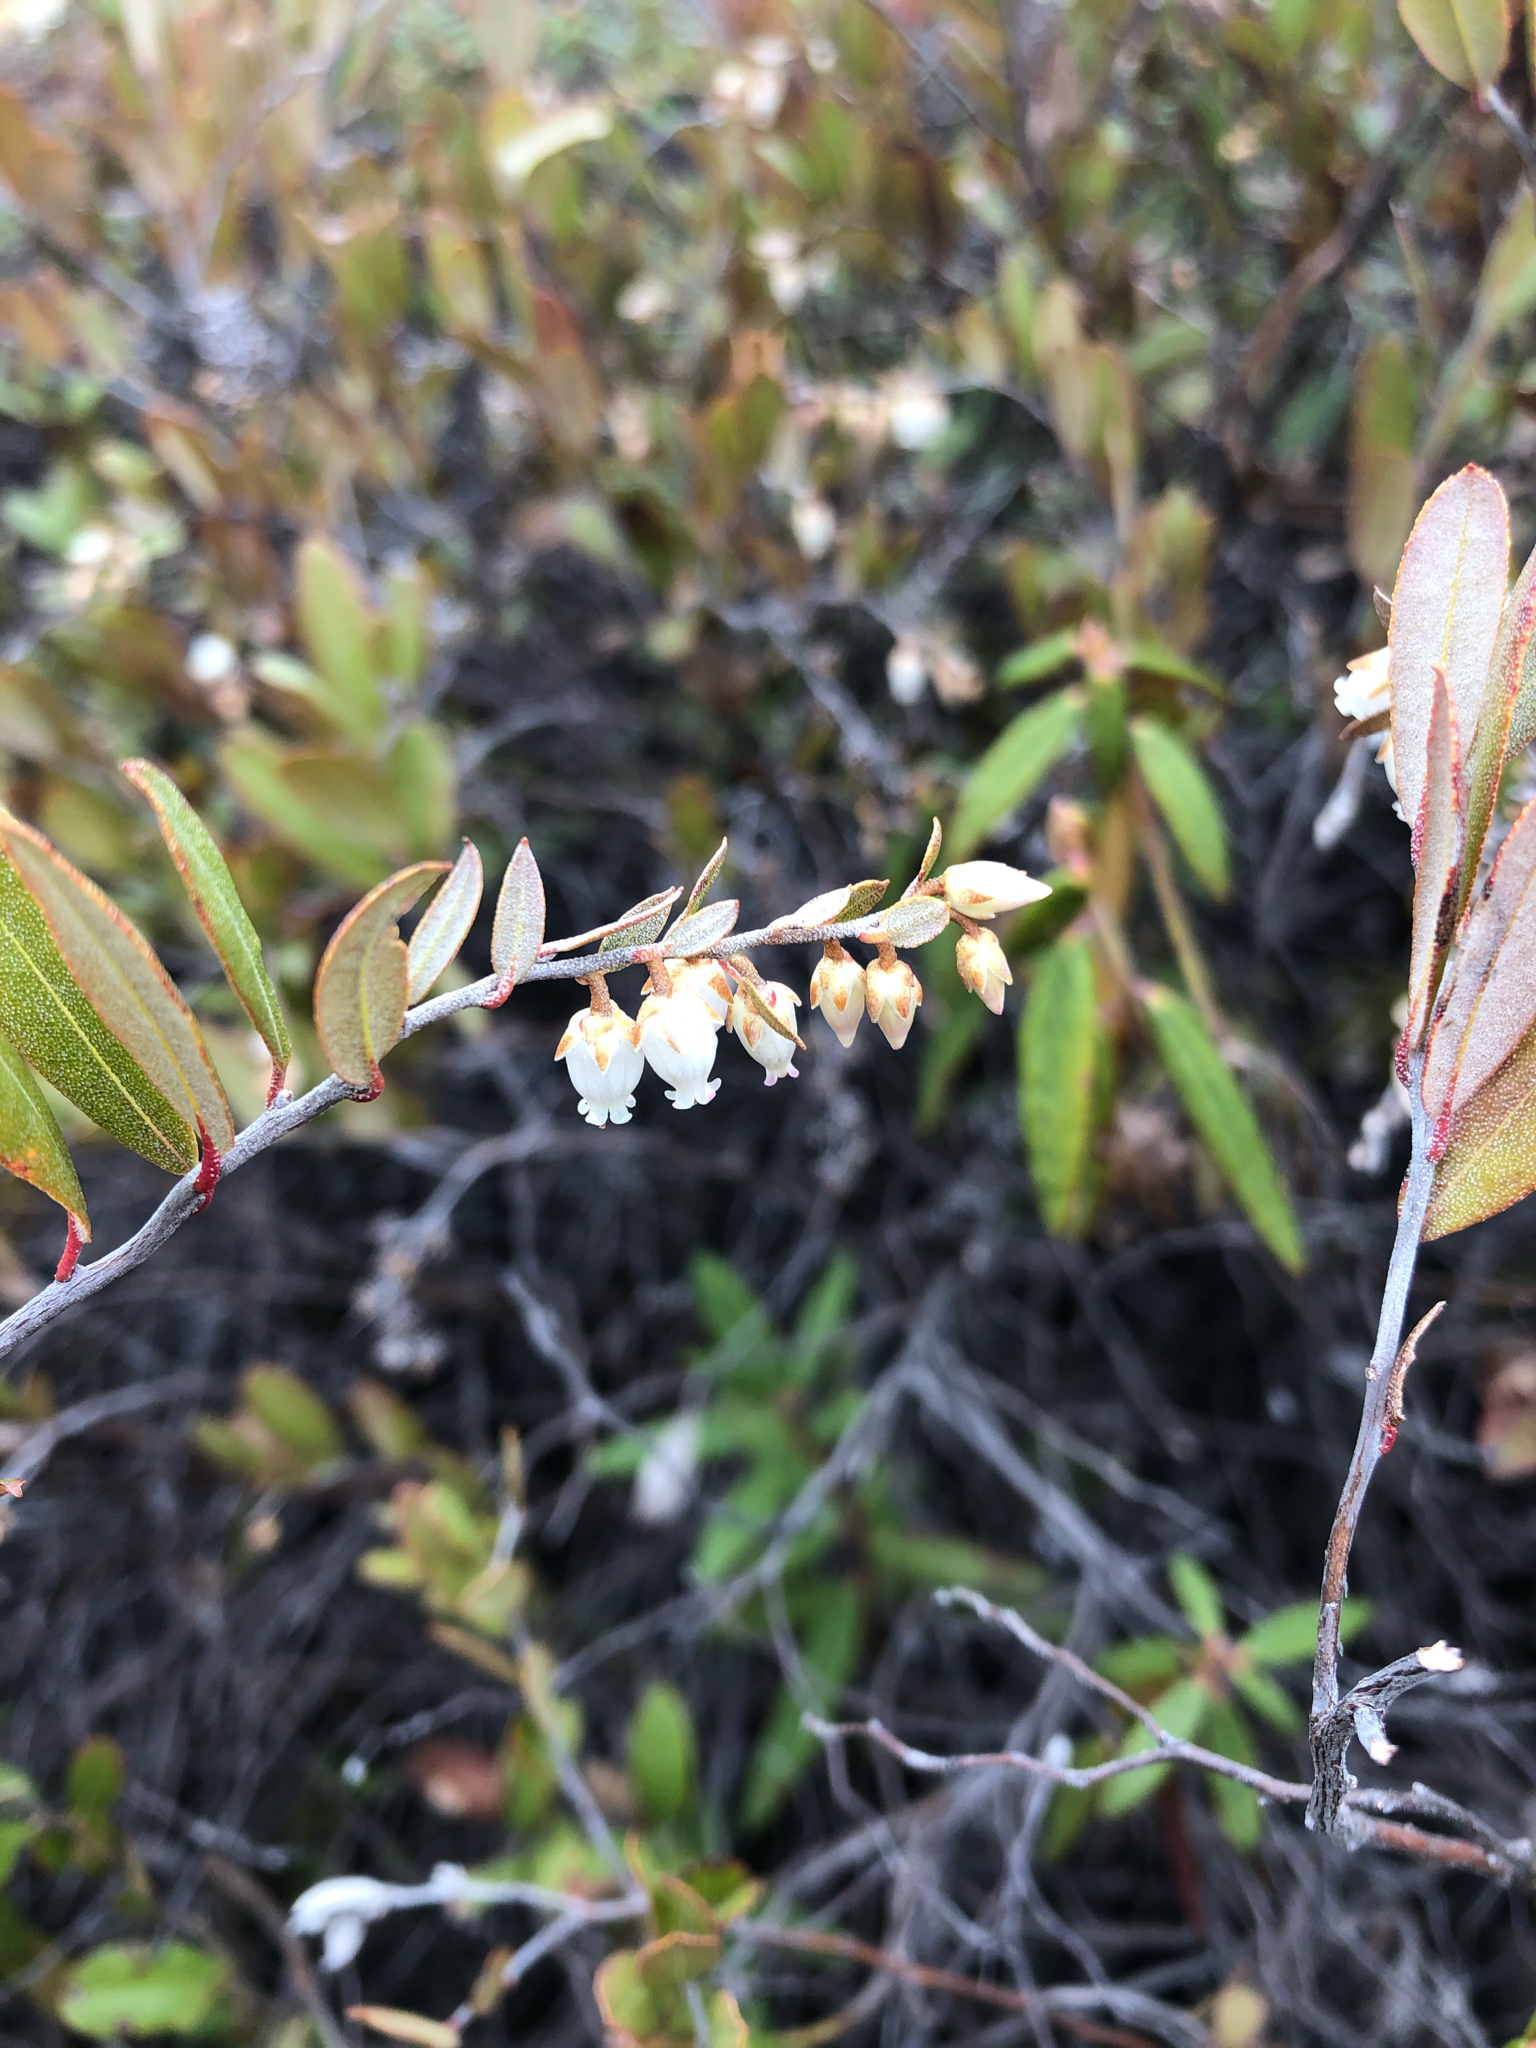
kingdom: Plantae
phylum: Tracheophyta
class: Magnoliopsida
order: Ericales
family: Ericaceae
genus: Chamaedaphne
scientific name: Chamaedaphne calyculata
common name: Leatherleaf
